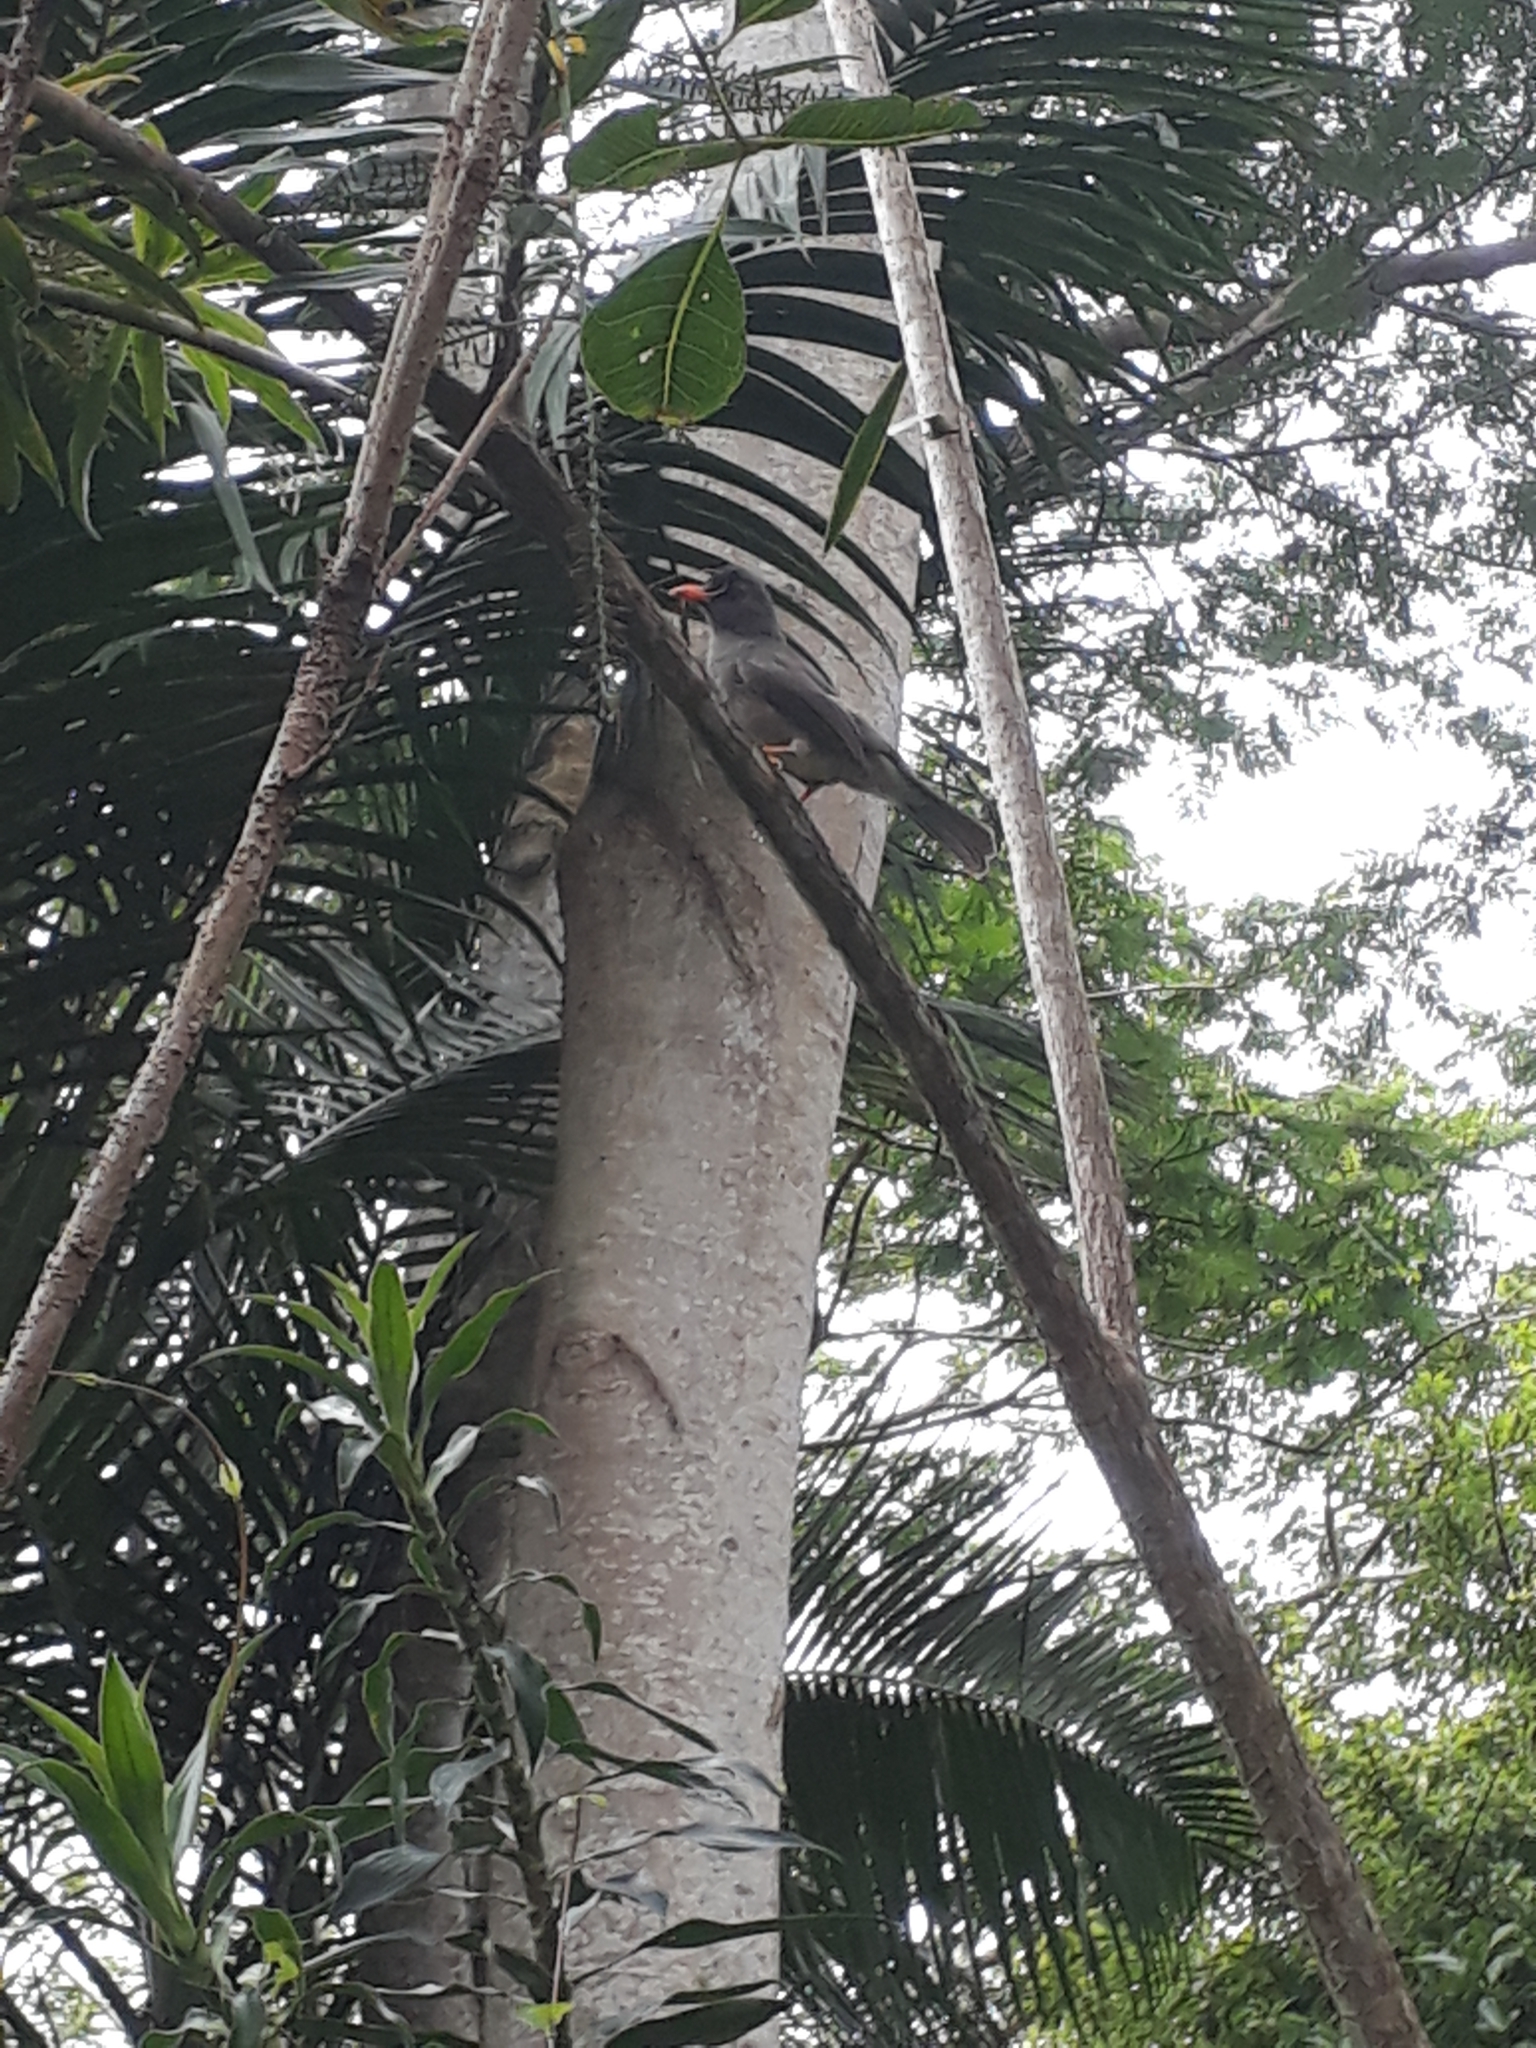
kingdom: Animalia
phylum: Chordata
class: Aves
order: Passeriformes
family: Pycnonotidae
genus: Hypsipetes
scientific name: Hypsipetes olivaceus
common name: Mauritius bulbul
